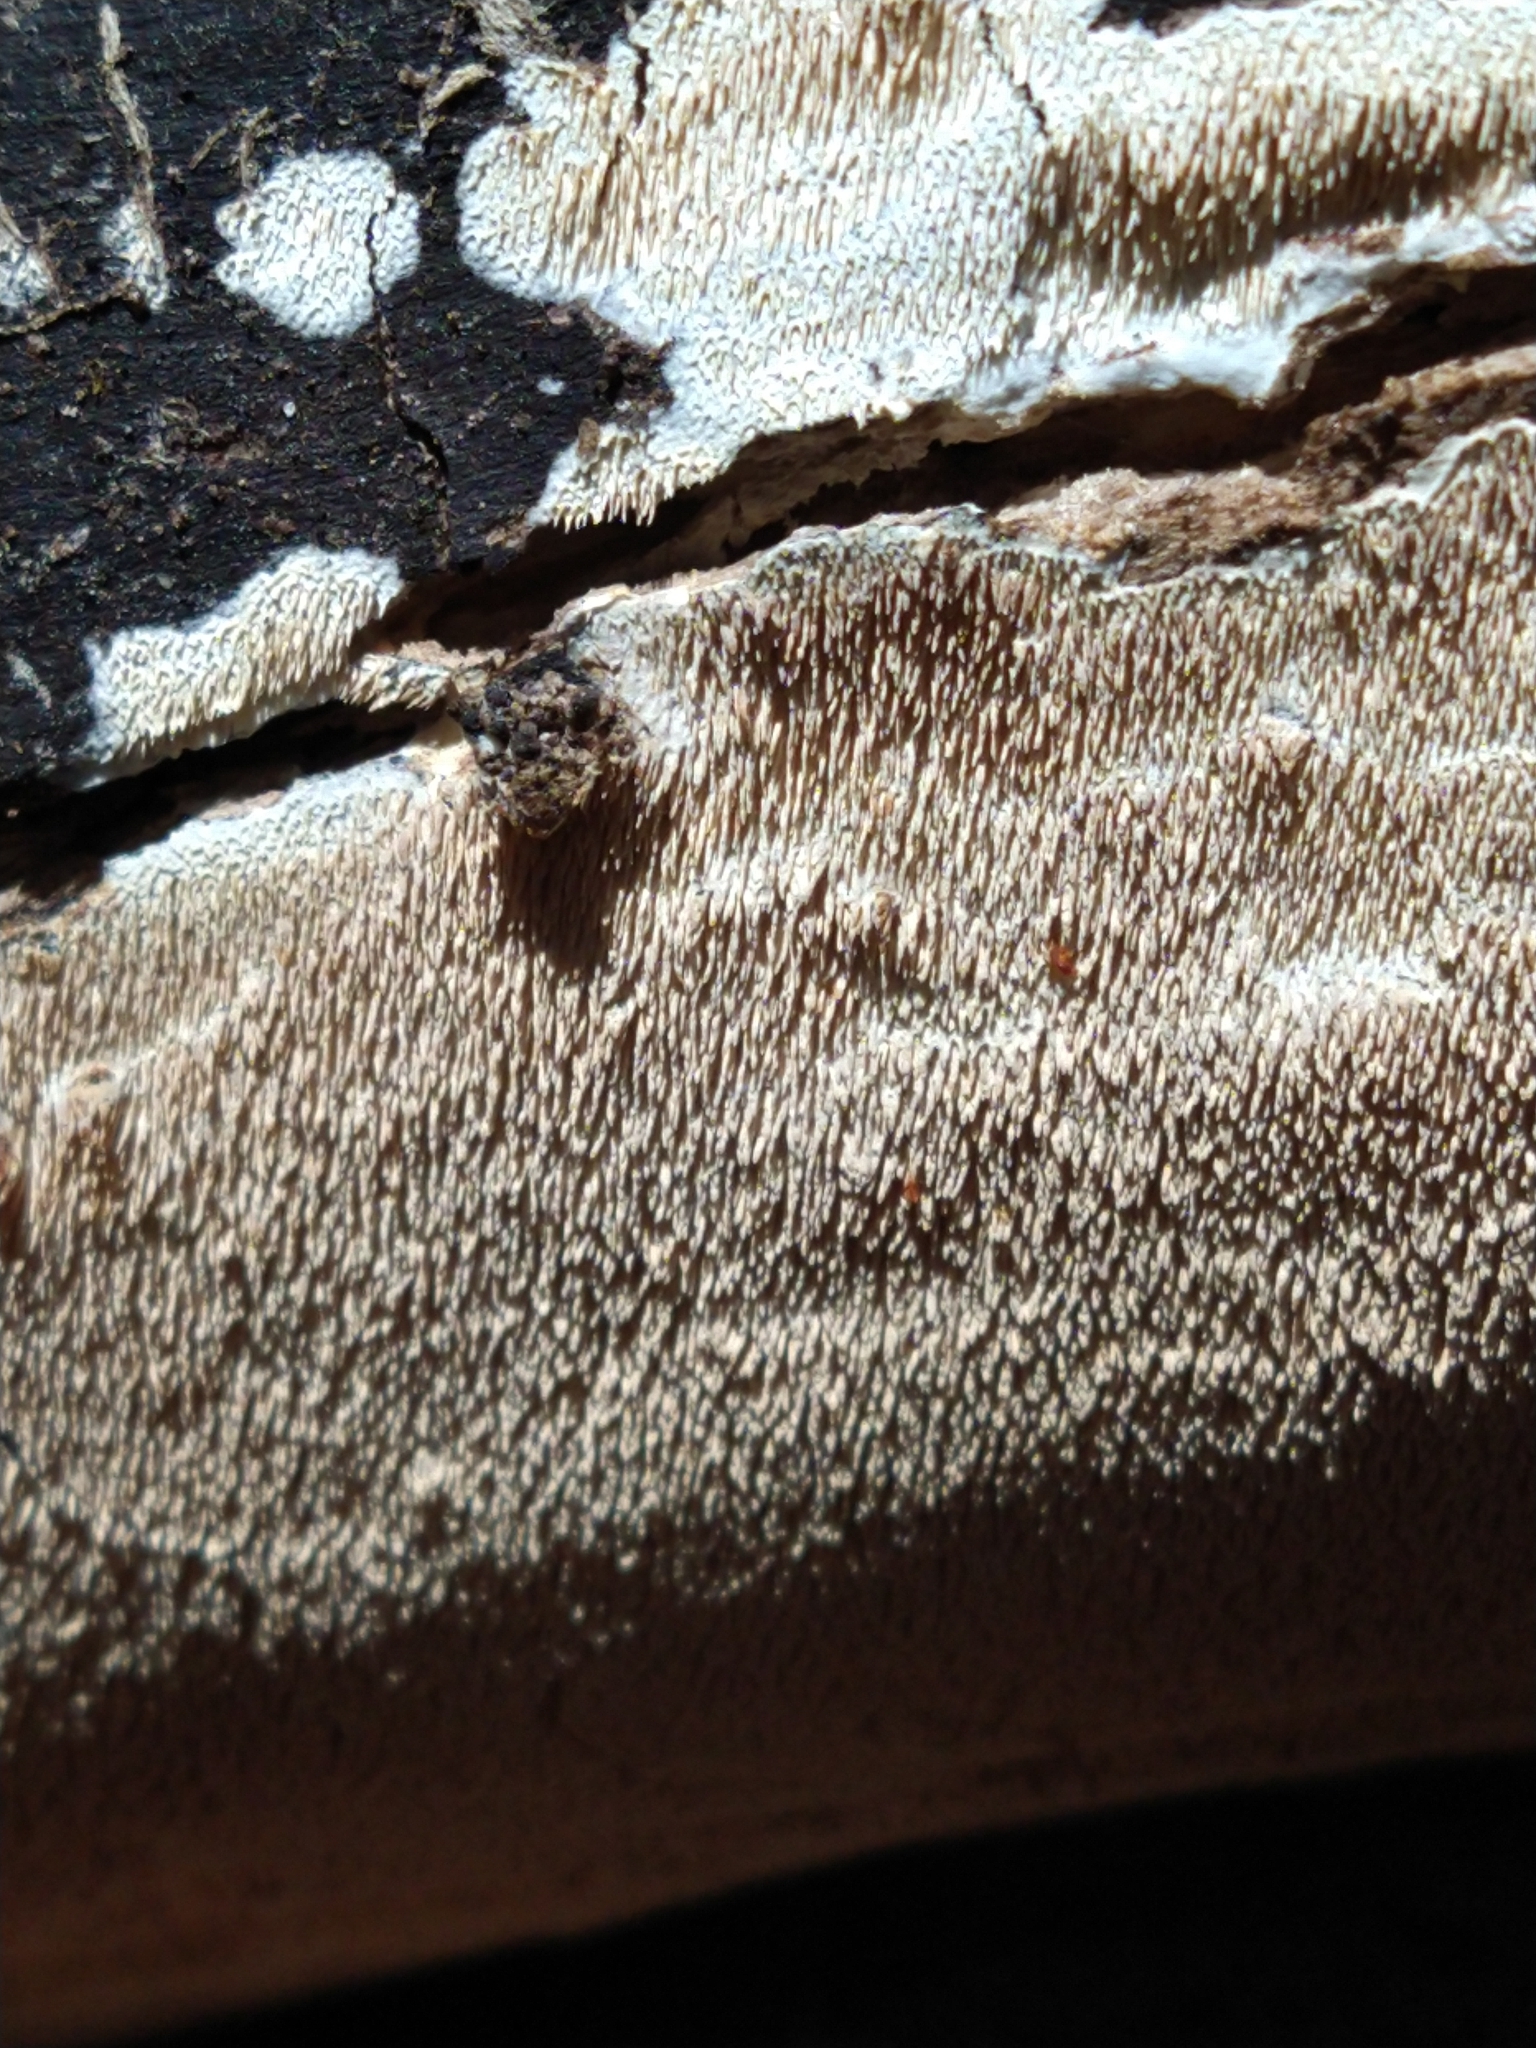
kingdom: Fungi
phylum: Basidiomycota
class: Agaricomycetes
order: Polyporales
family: Irpicaceae
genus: Irpex
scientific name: Irpex lacteus
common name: Milk-white toothed polypore
